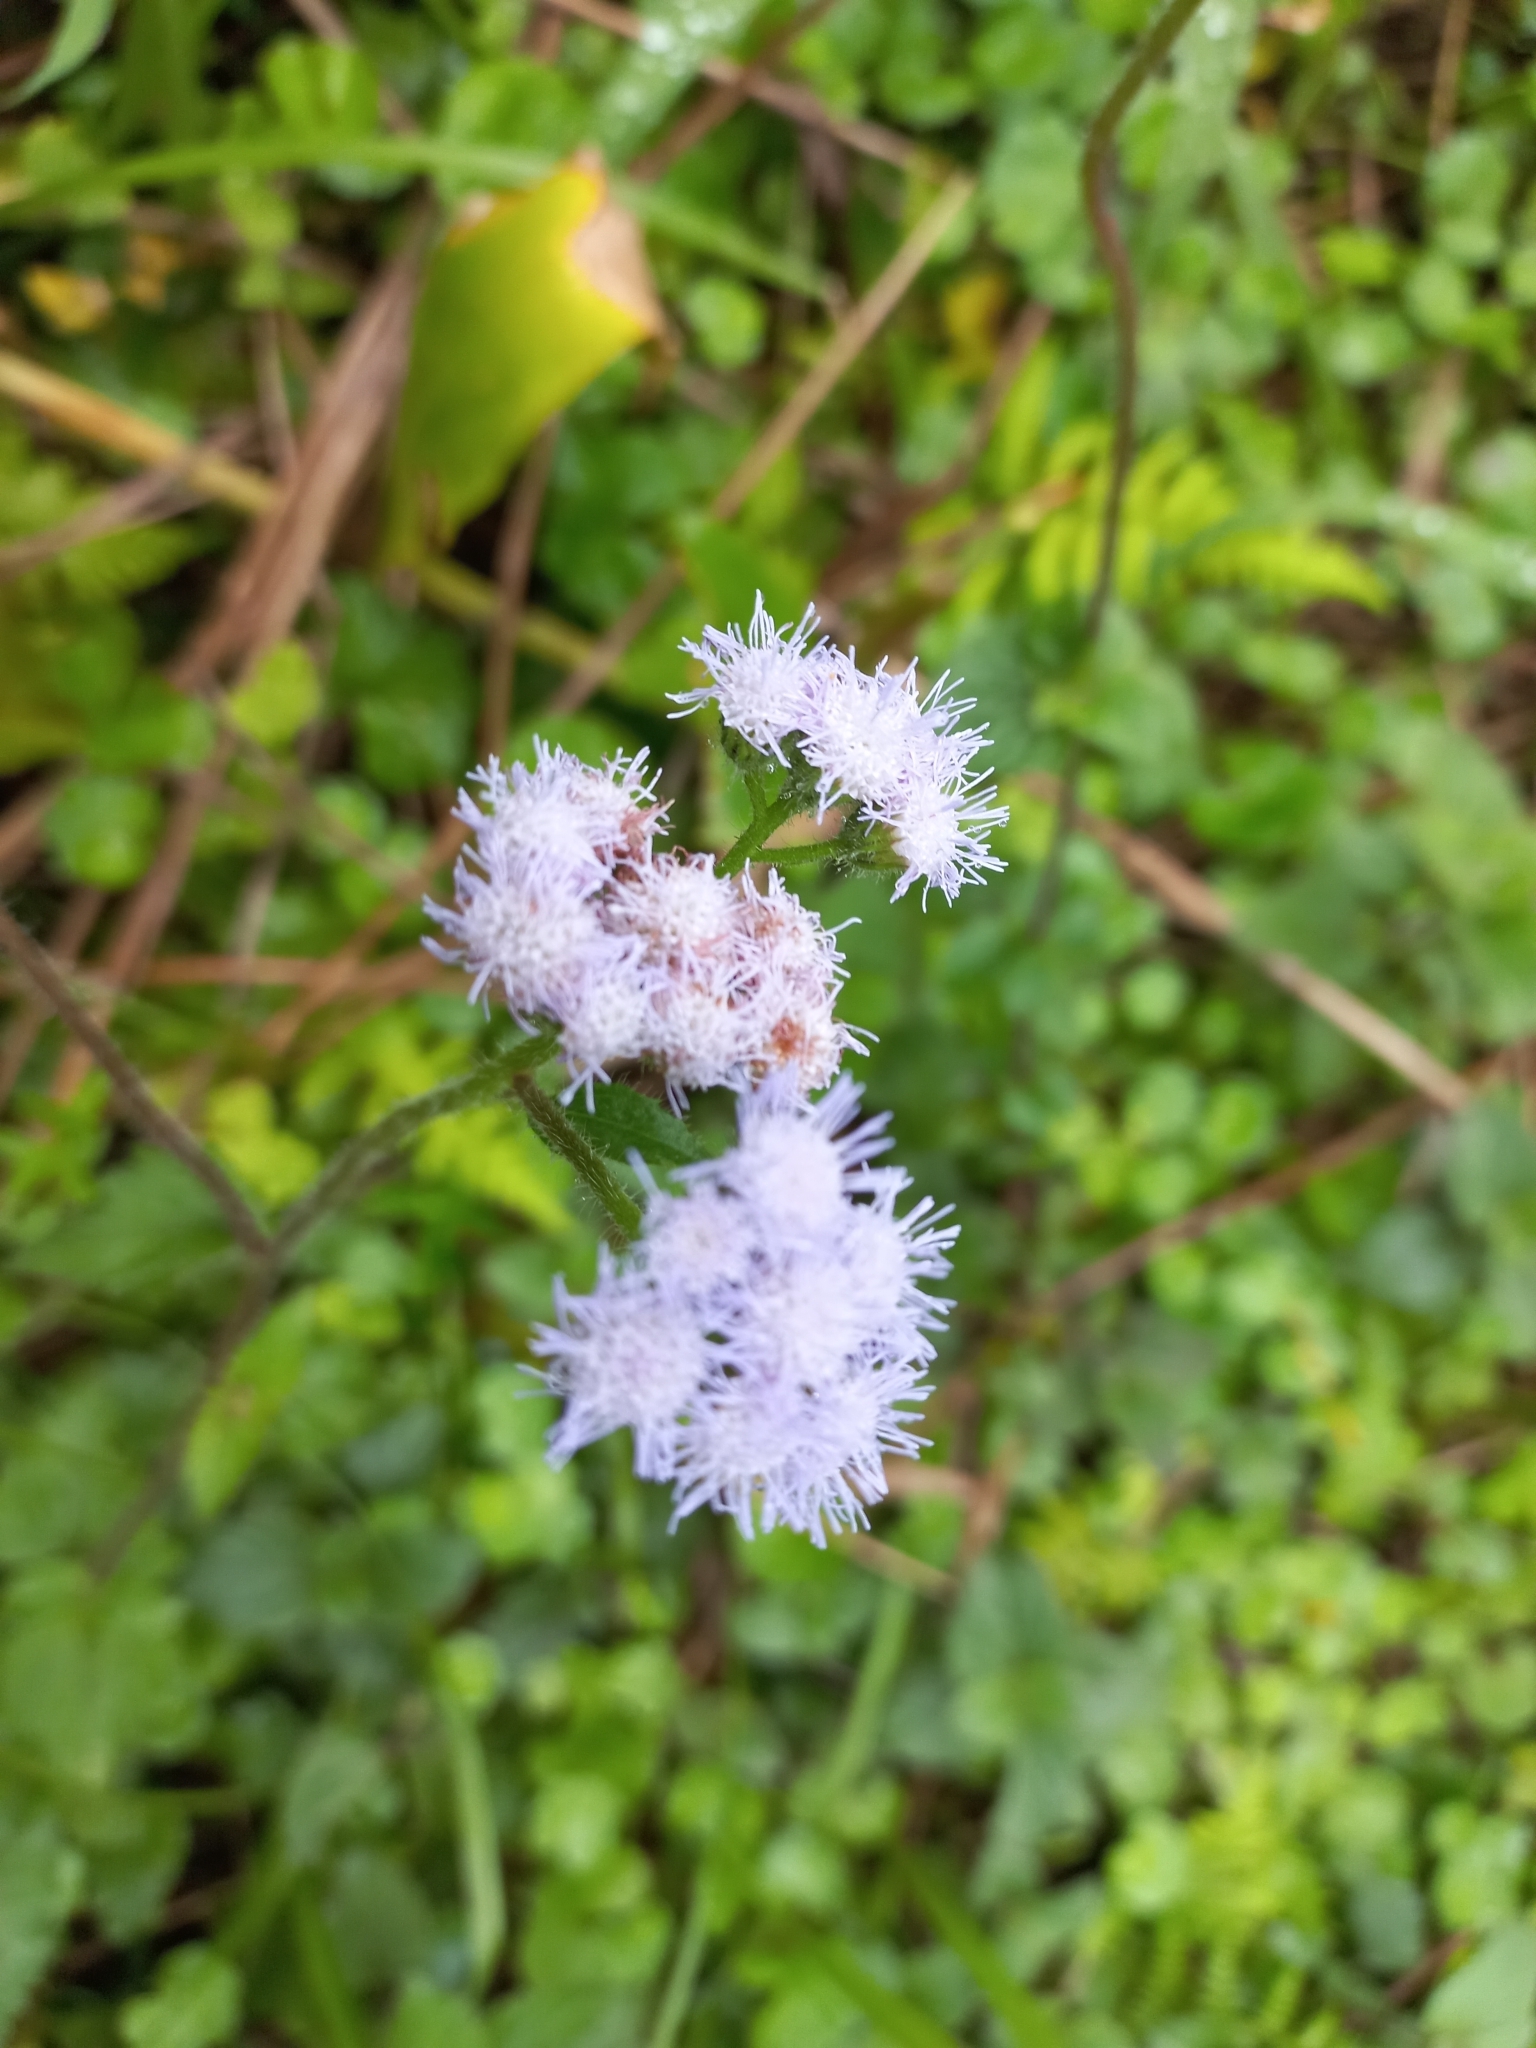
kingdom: Plantae
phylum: Tracheophyta
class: Magnoliopsida
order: Asterales
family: Asteraceae
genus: Ageratum
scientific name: Ageratum houstonianum
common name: Bluemink
